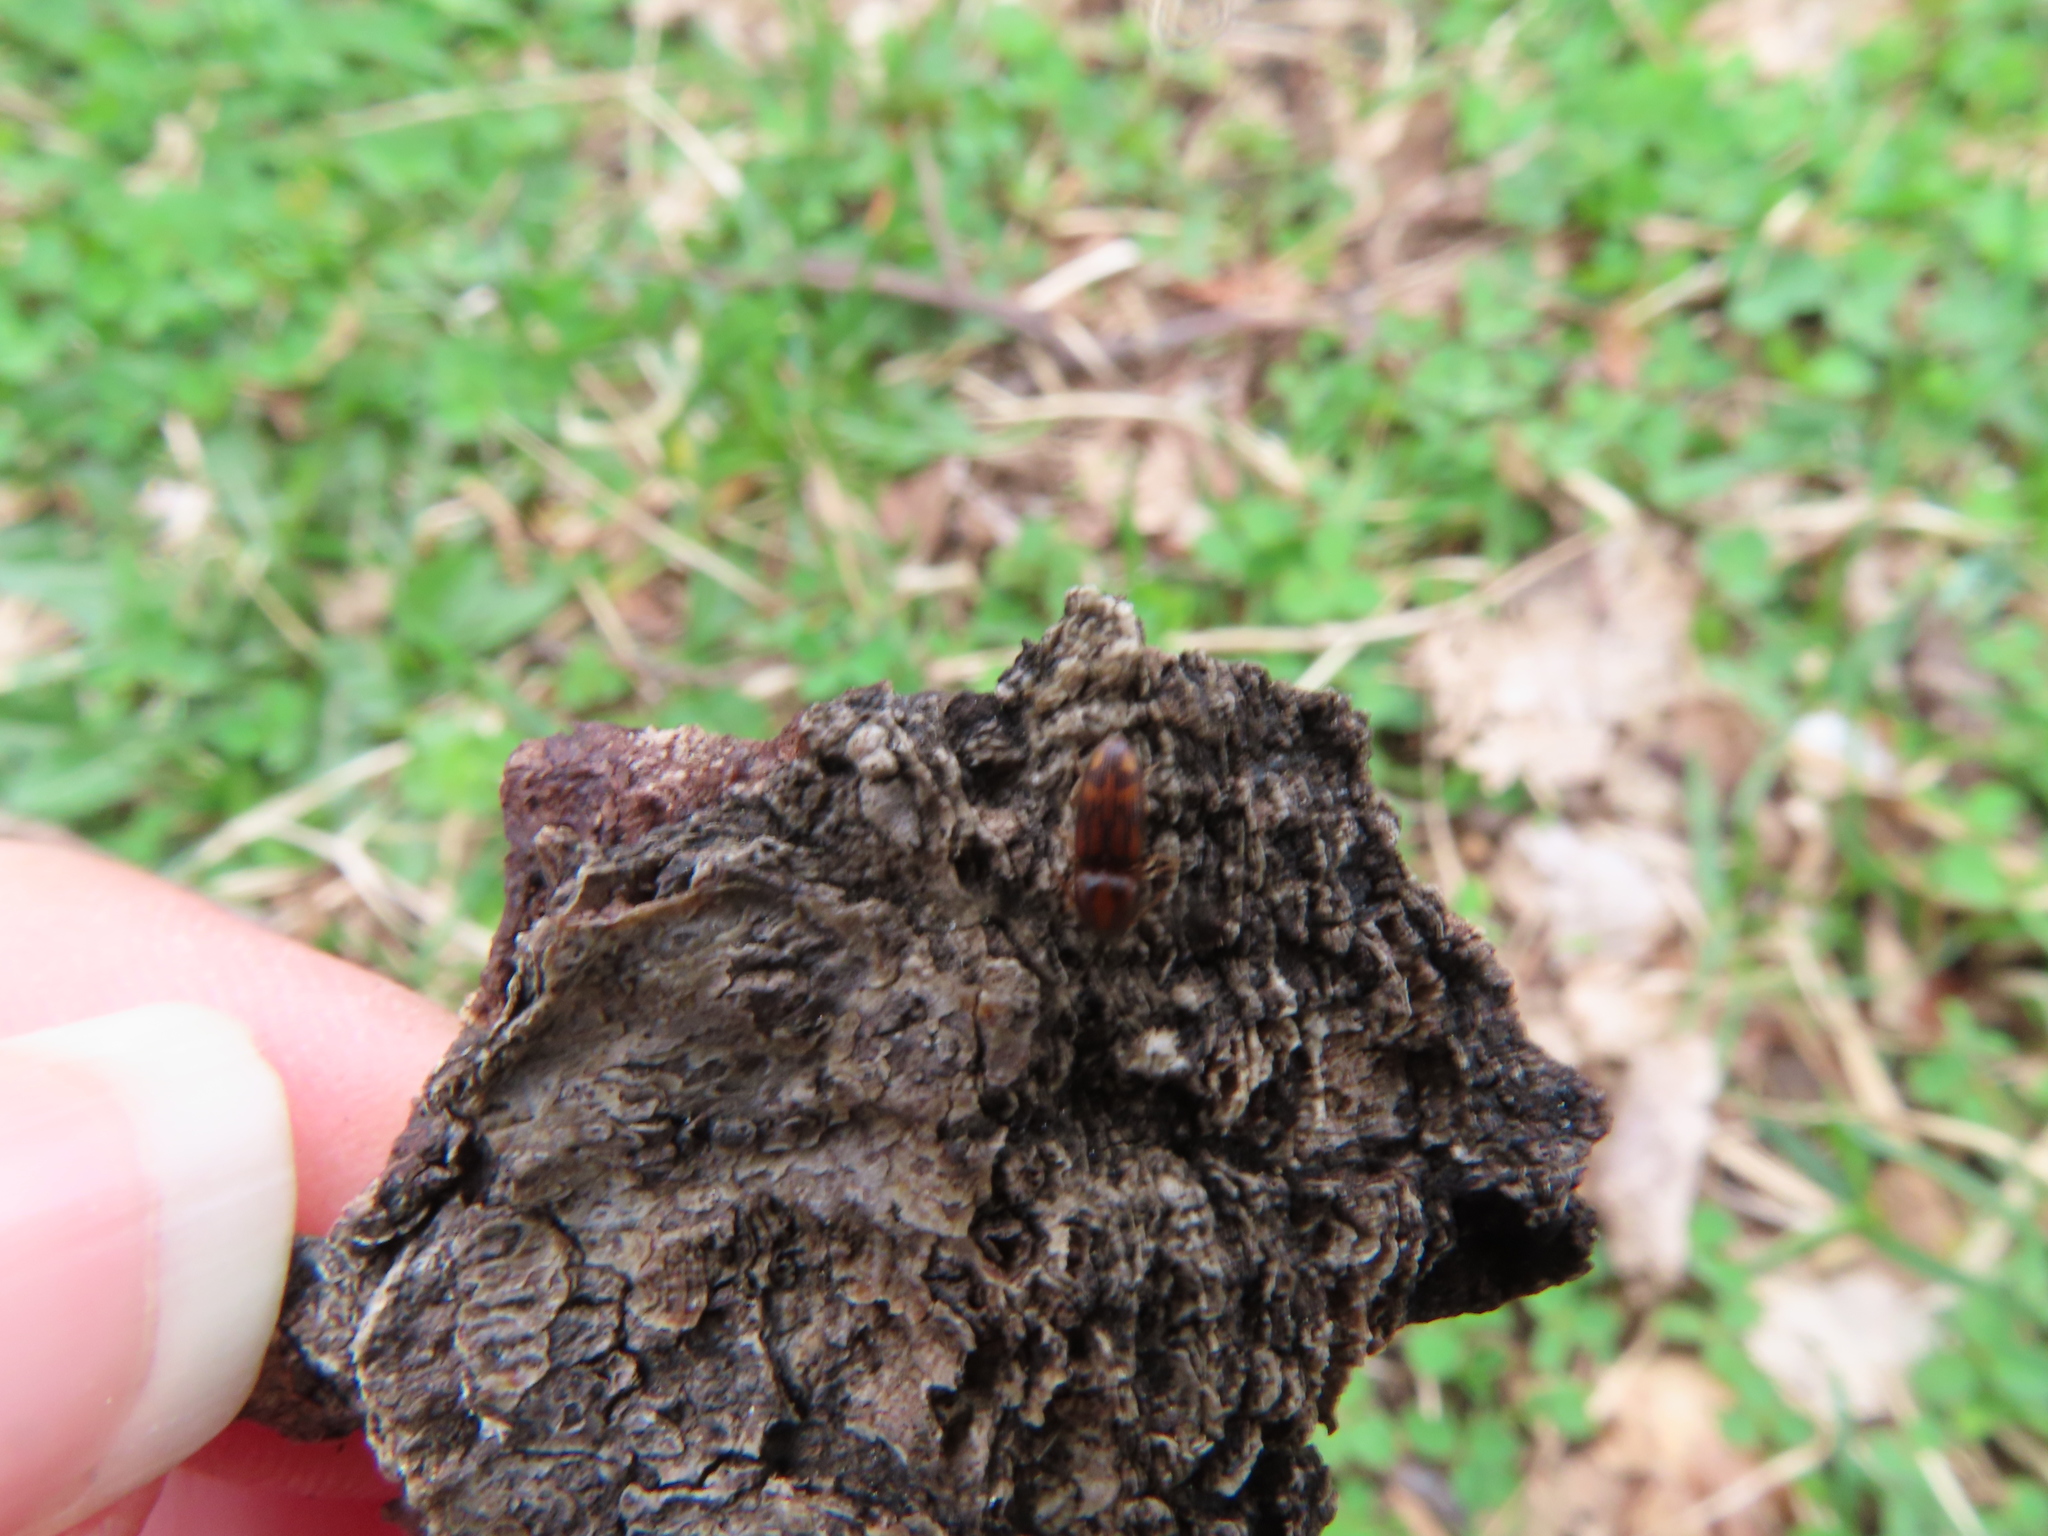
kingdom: Animalia
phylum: Arthropoda
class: Insecta
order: Coleoptera
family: Elateridae
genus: Monocrepidius
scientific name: Monocrepidius bellus
